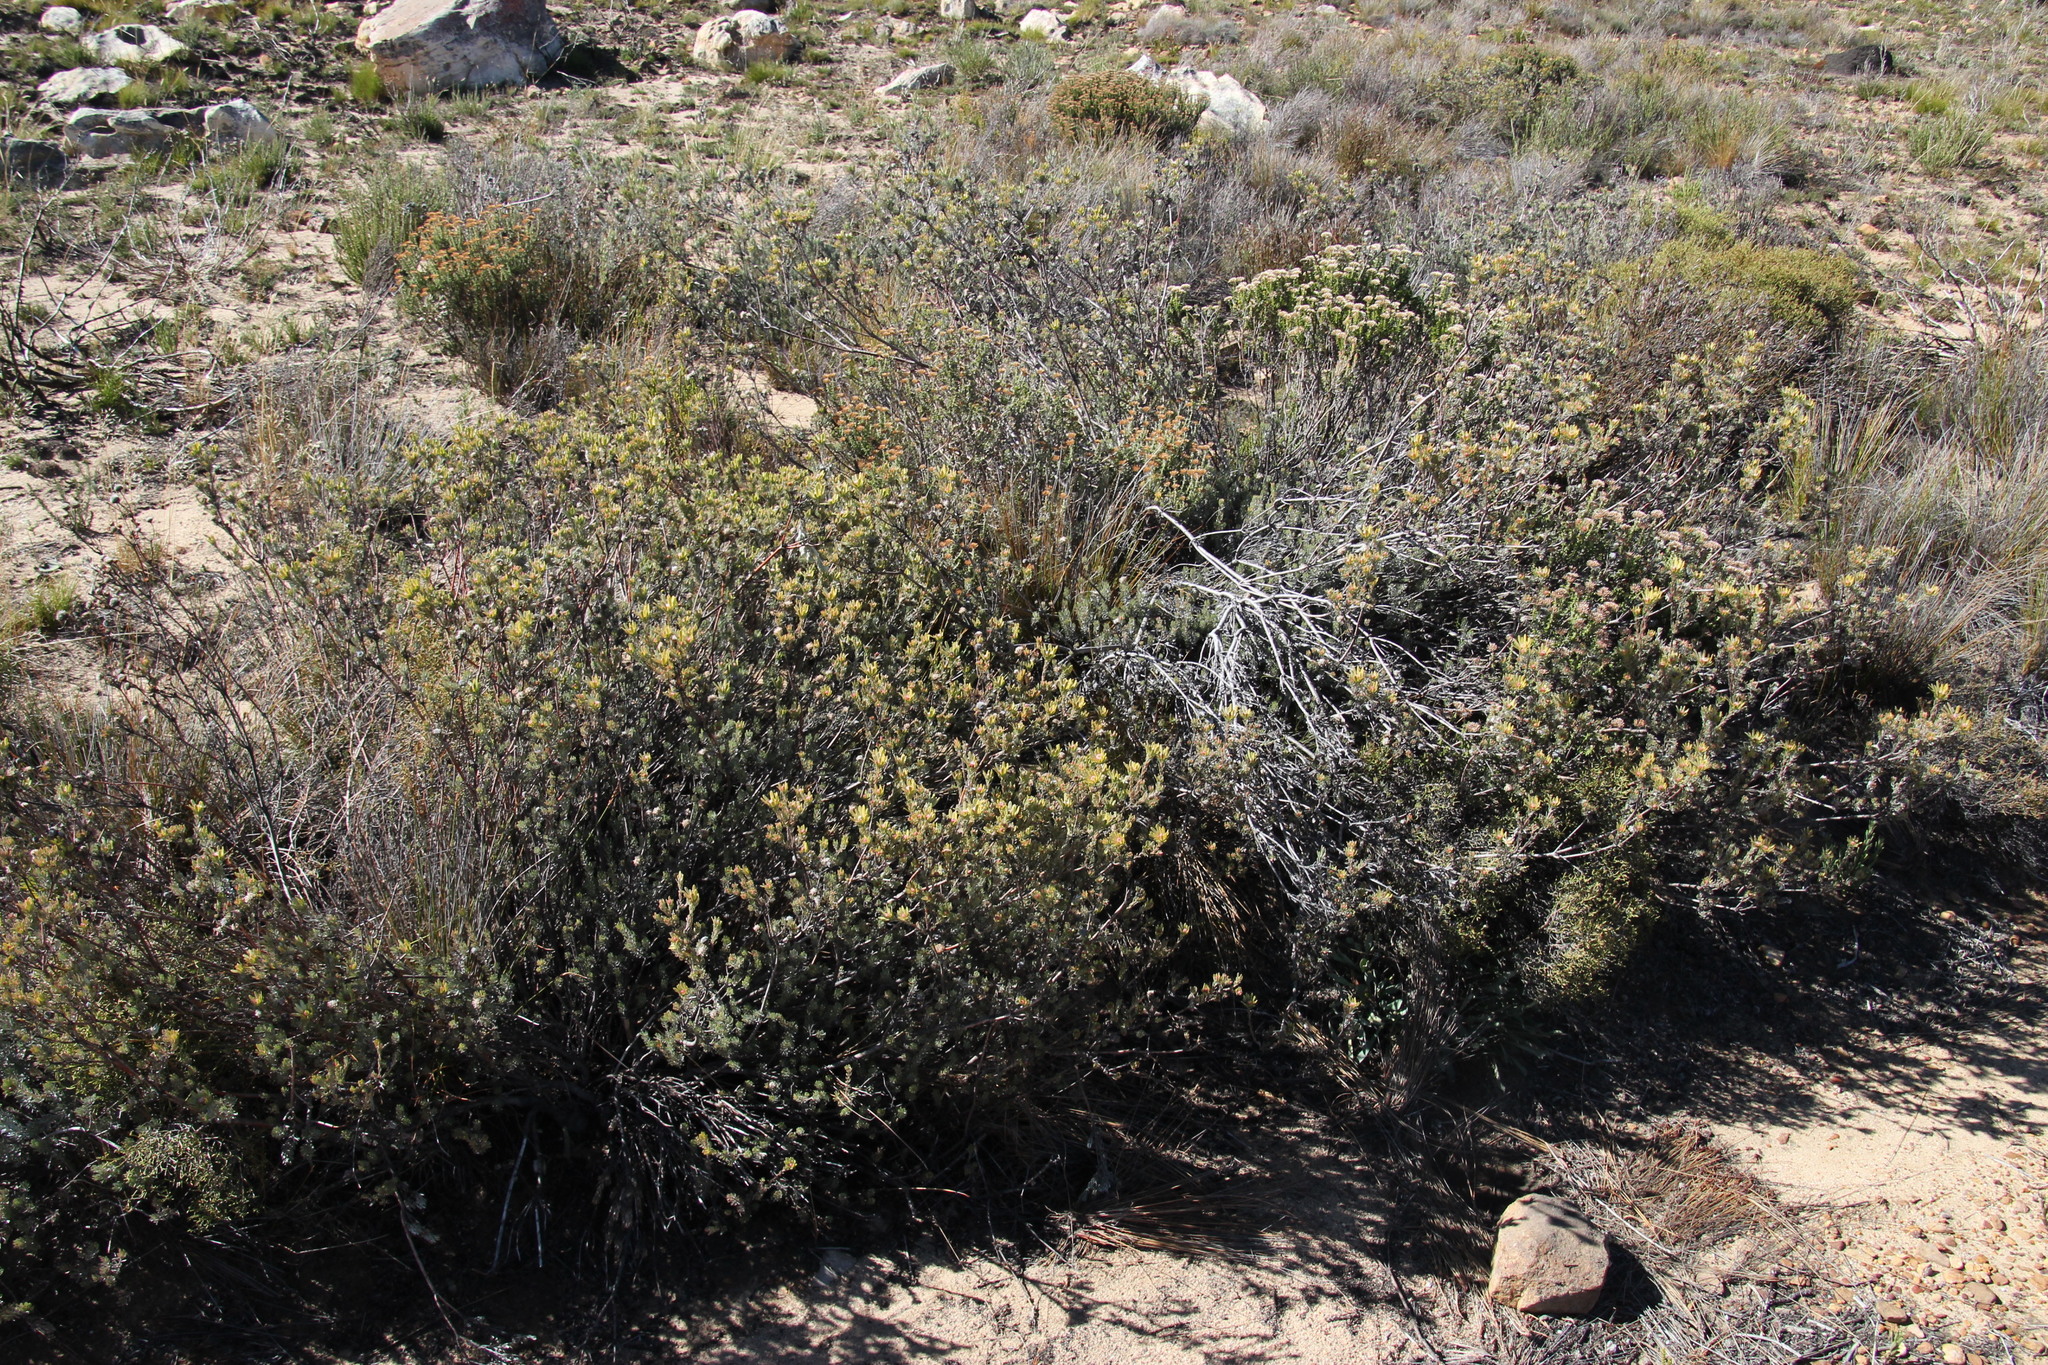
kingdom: Plantae
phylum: Tracheophyta
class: Magnoliopsida
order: Proteales
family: Proteaceae
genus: Leucadendron
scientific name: Leucadendron nitidum
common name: Bokkeveld conebush
